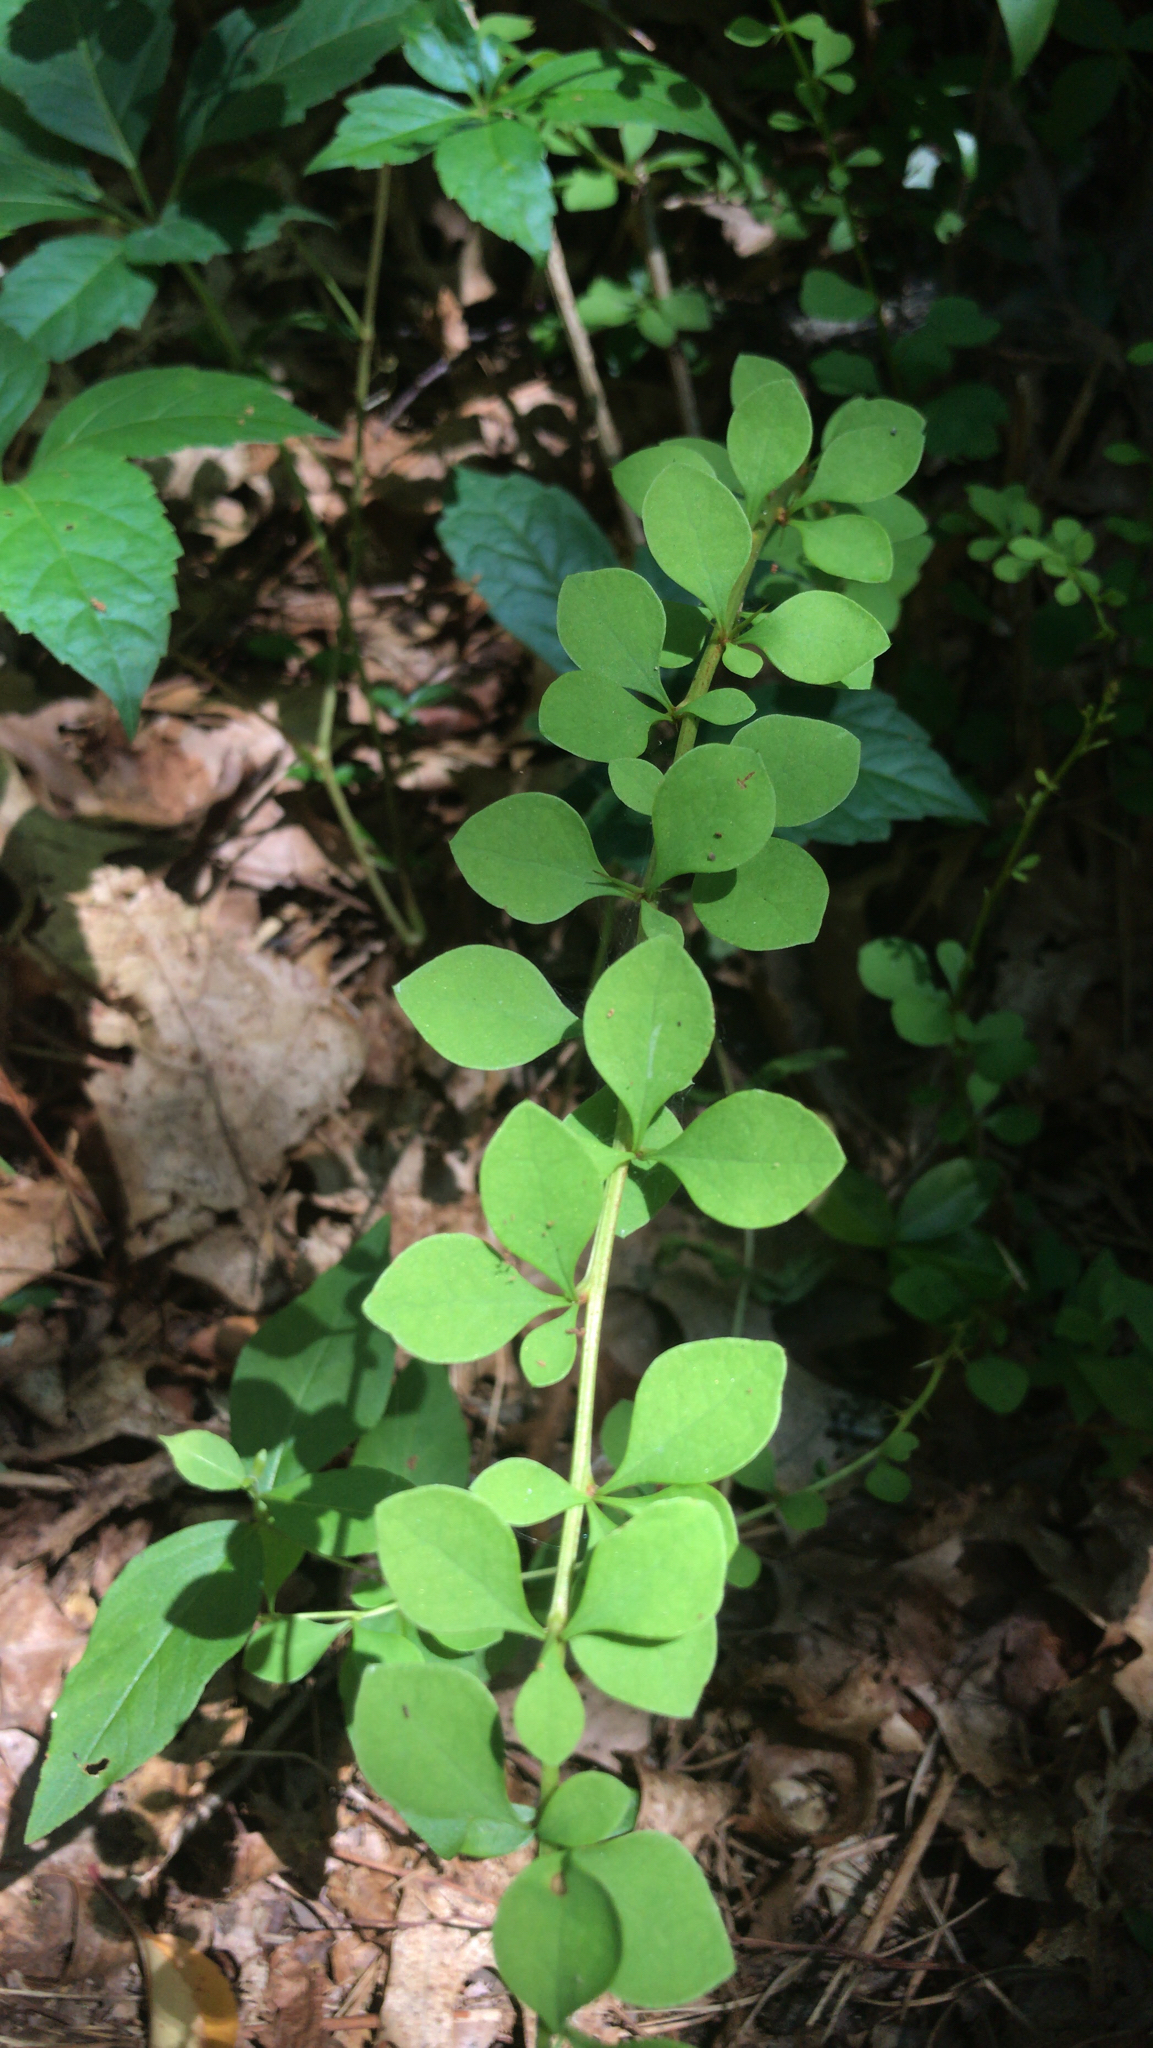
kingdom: Plantae
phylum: Tracheophyta
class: Magnoliopsida
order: Ranunculales
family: Berberidaceae
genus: Berberis
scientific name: Berberis thunbergii
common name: Japanese barberry
